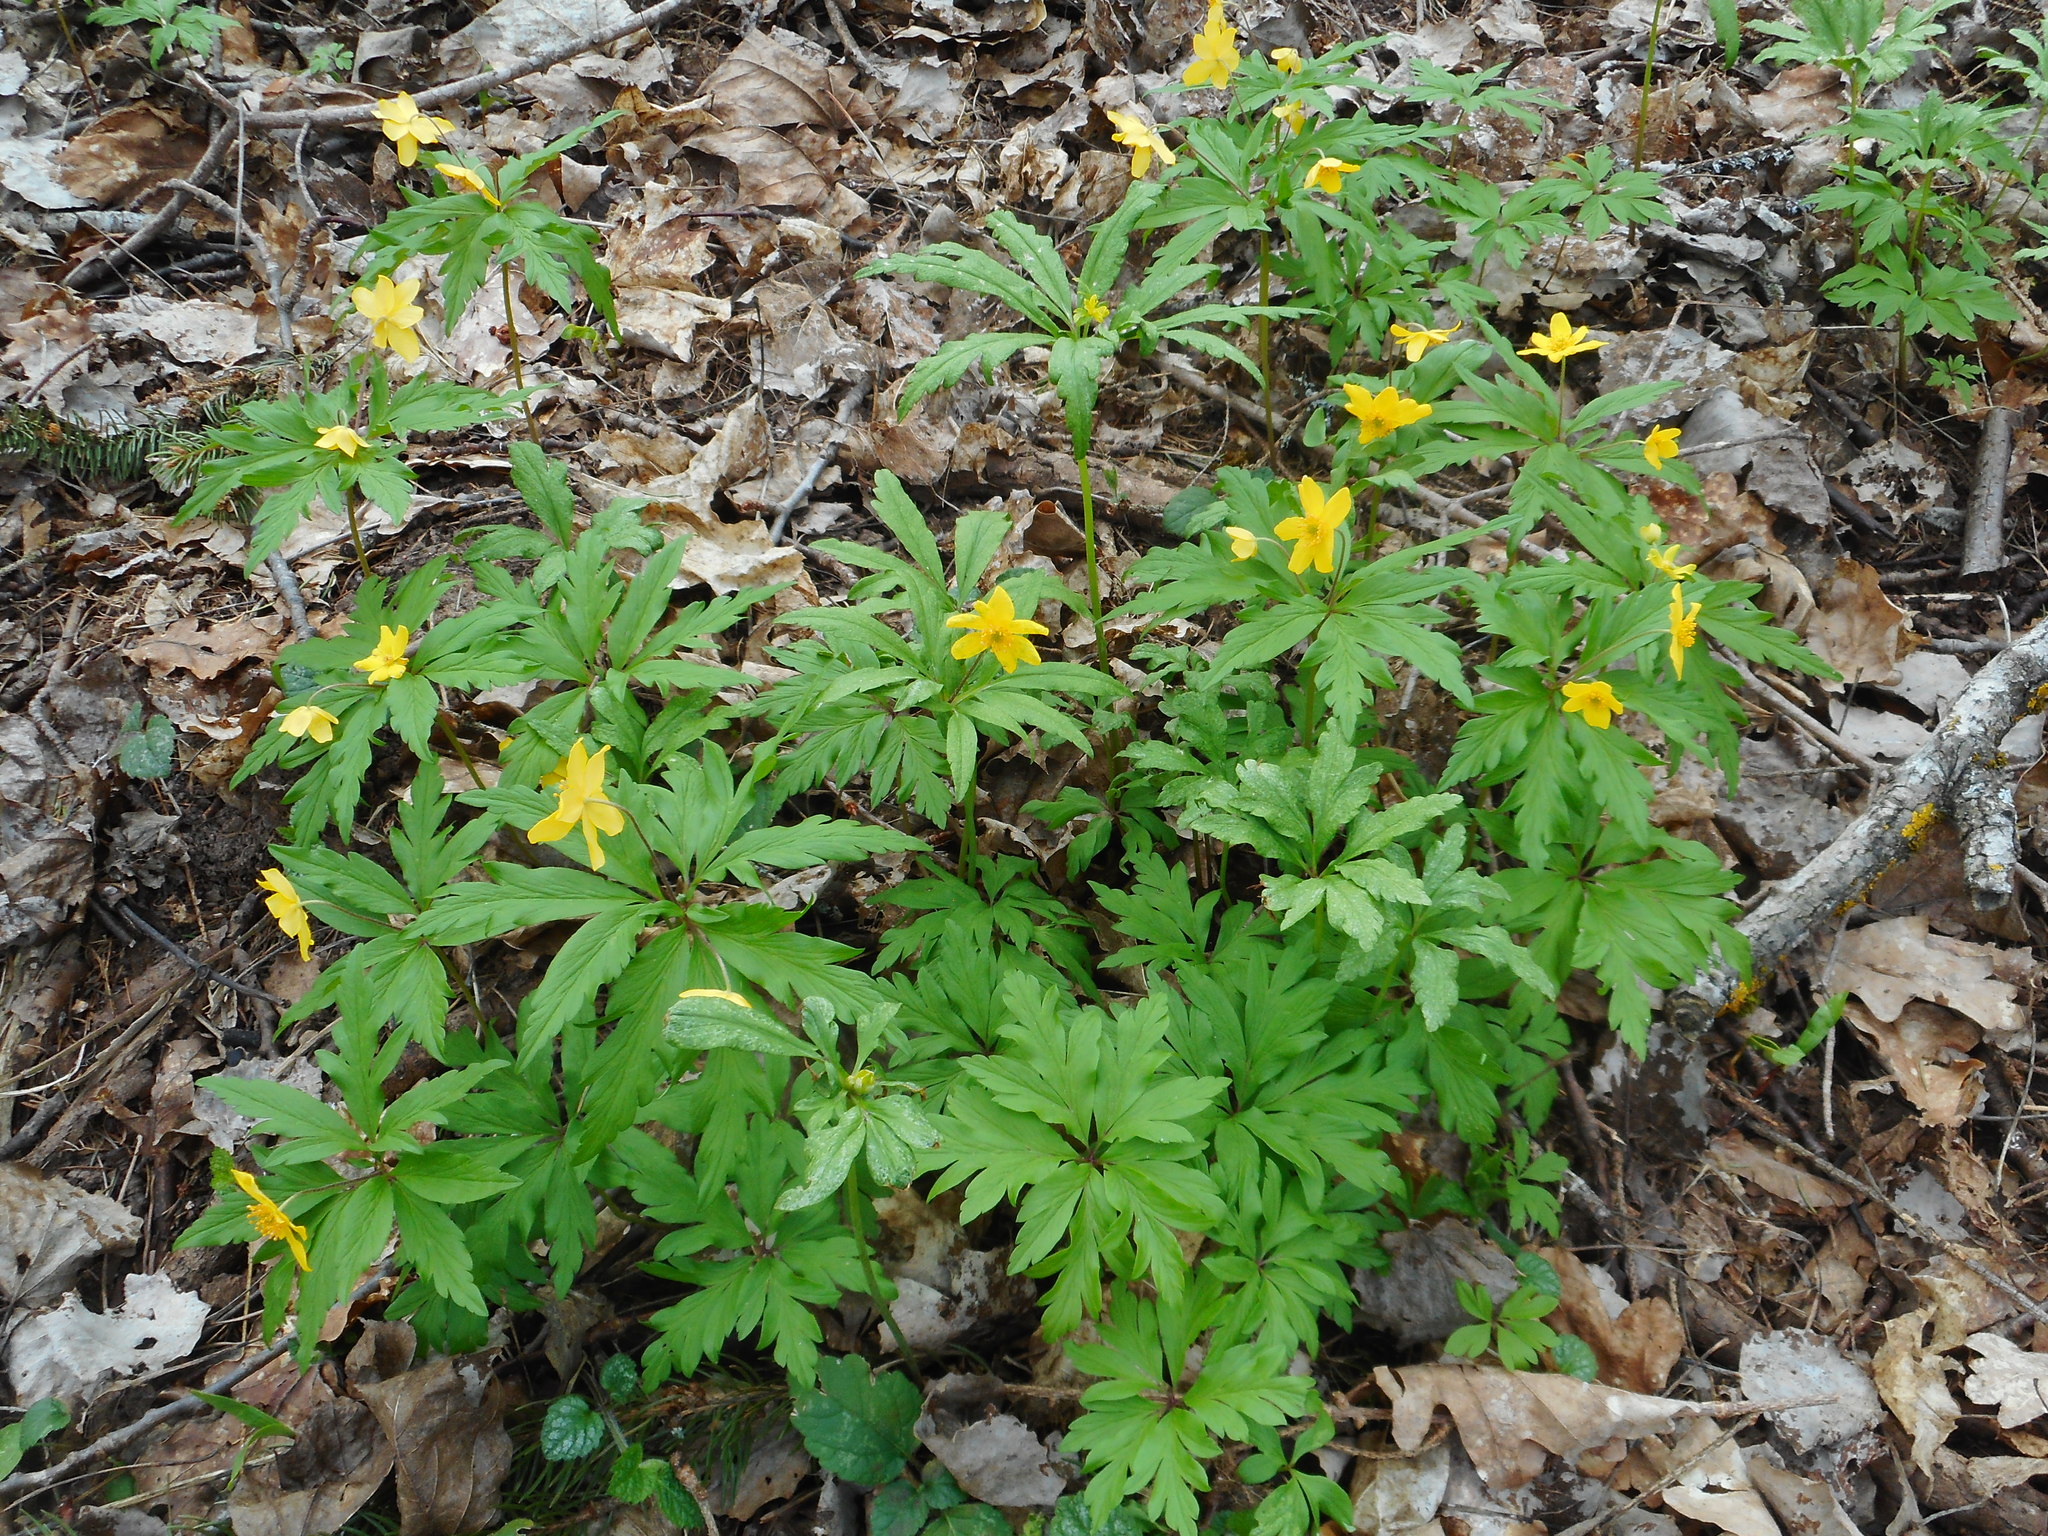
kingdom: Plantae
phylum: Tracheophyta
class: Magnoliopsida
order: Ranunculales
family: Ranunculaceae
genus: Anemone
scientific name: Anemone ranunculoides
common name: Yellow anemone
